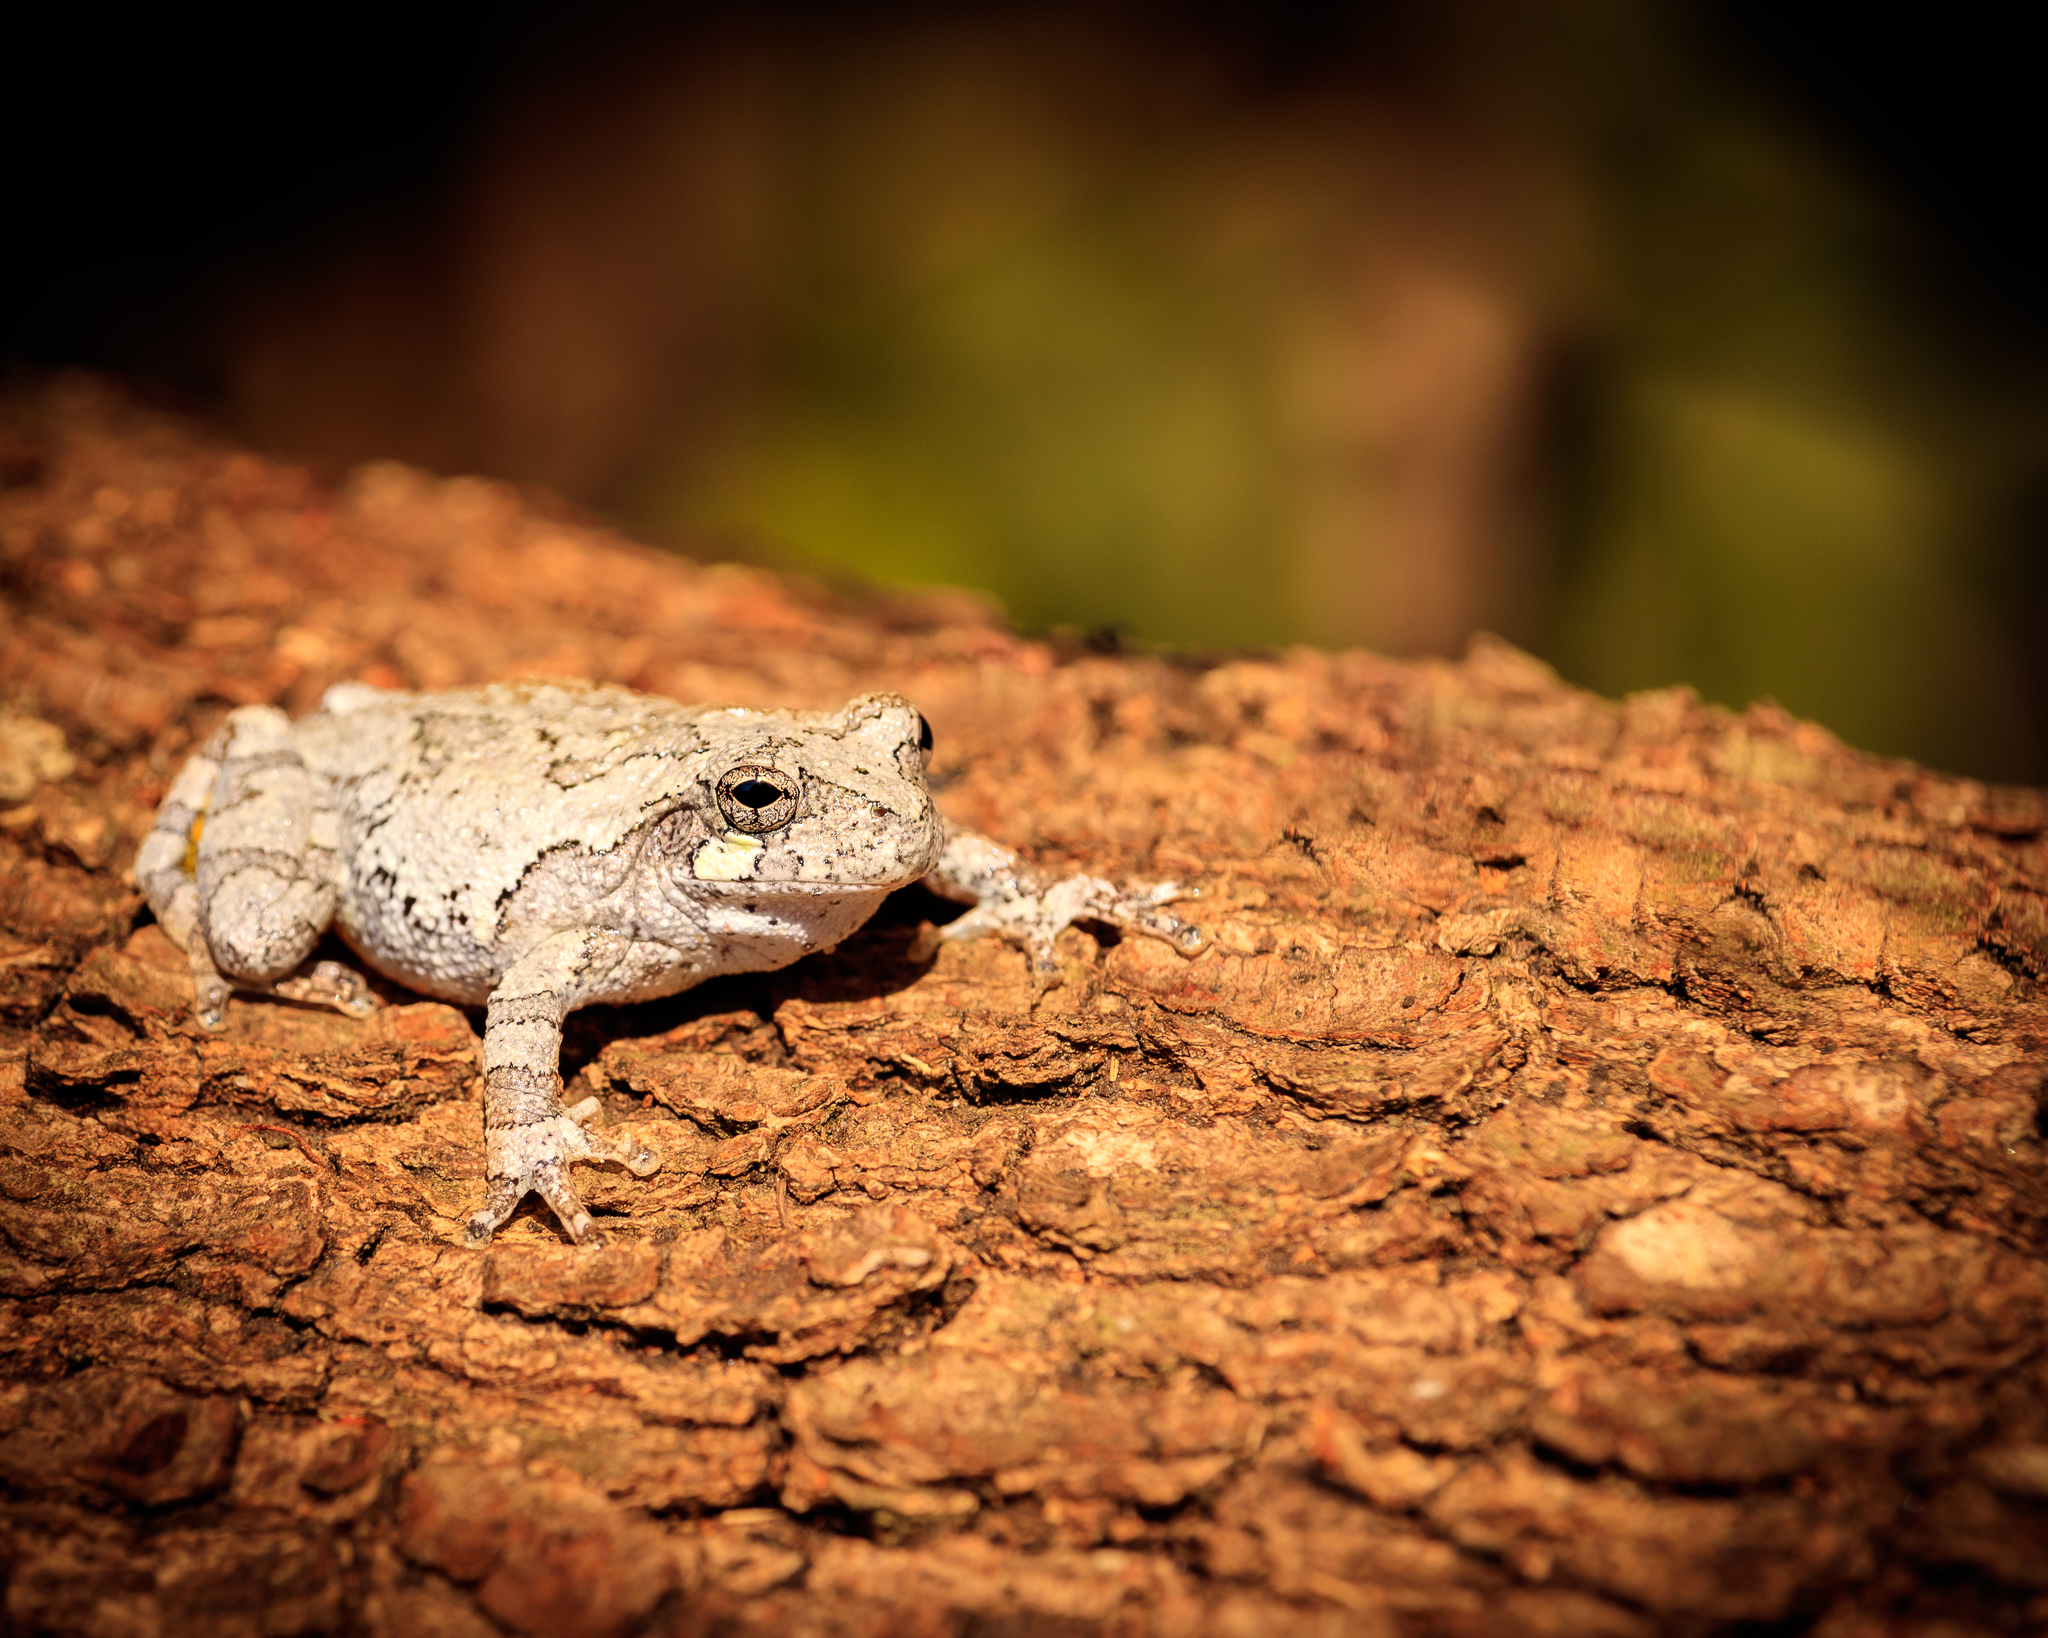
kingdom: Animalia
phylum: Chordata
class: Amphibia
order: Anura
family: Hylidae
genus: Dryophytes
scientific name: Dryophytes chrysoscelis
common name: Cope's gray treefrog
